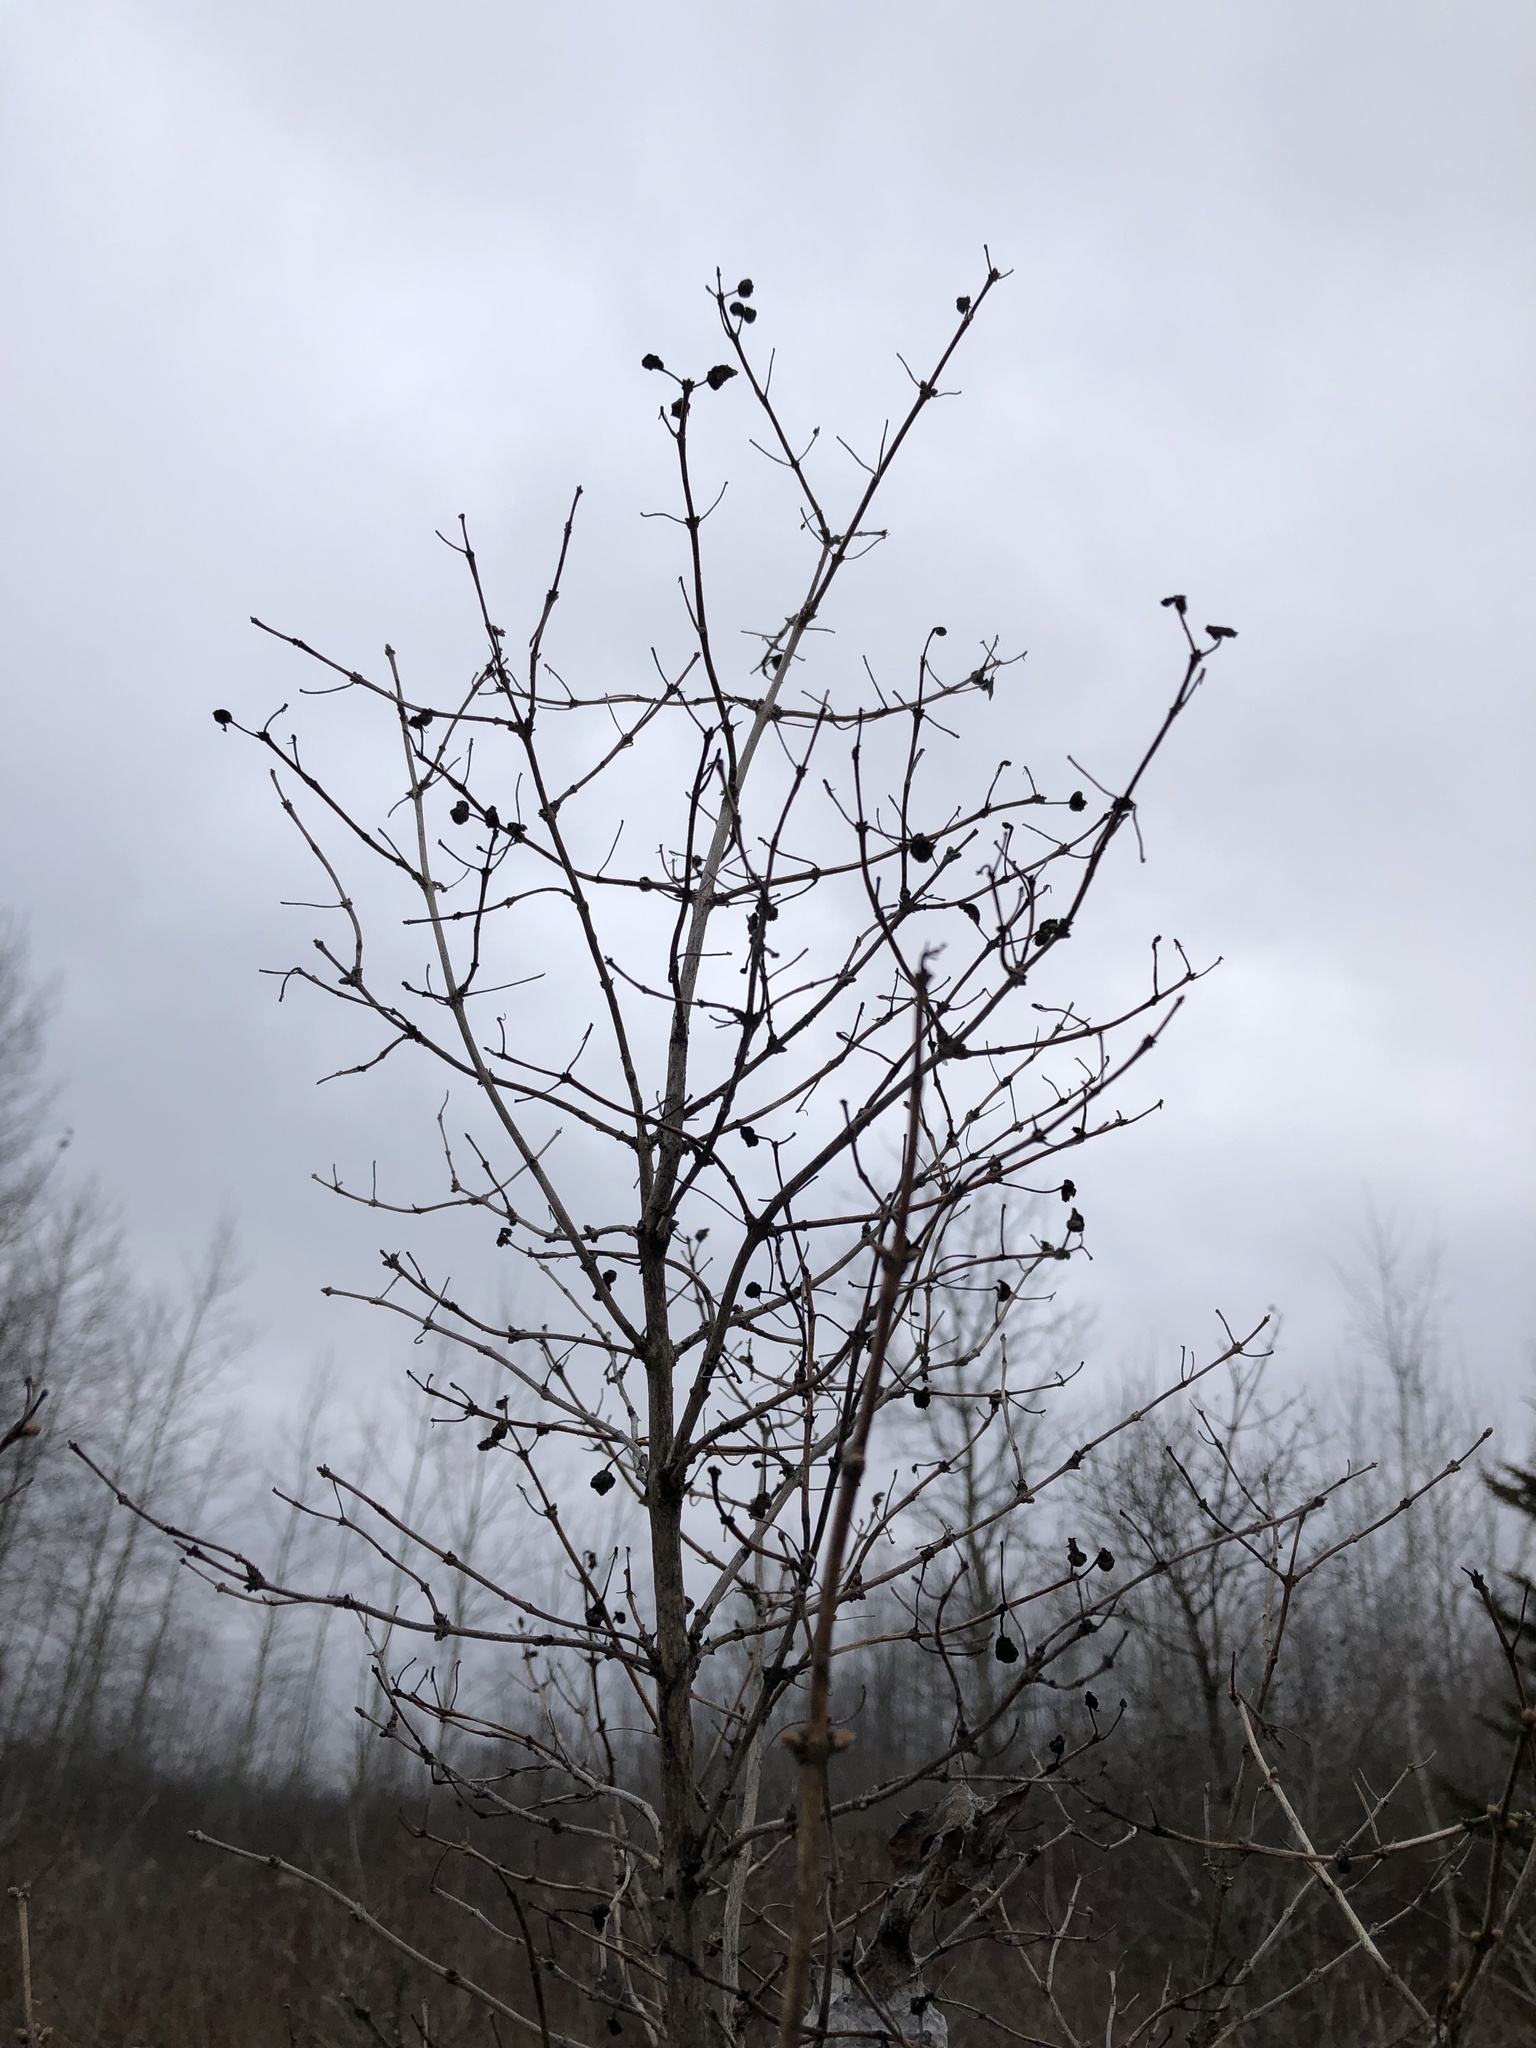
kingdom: Plantae
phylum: Tracheophyta
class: Magnoliopsida
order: Rosales
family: Rhamnaceae
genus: Rhamnus
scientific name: Rhamnus cathartica
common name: Common buckthorn
